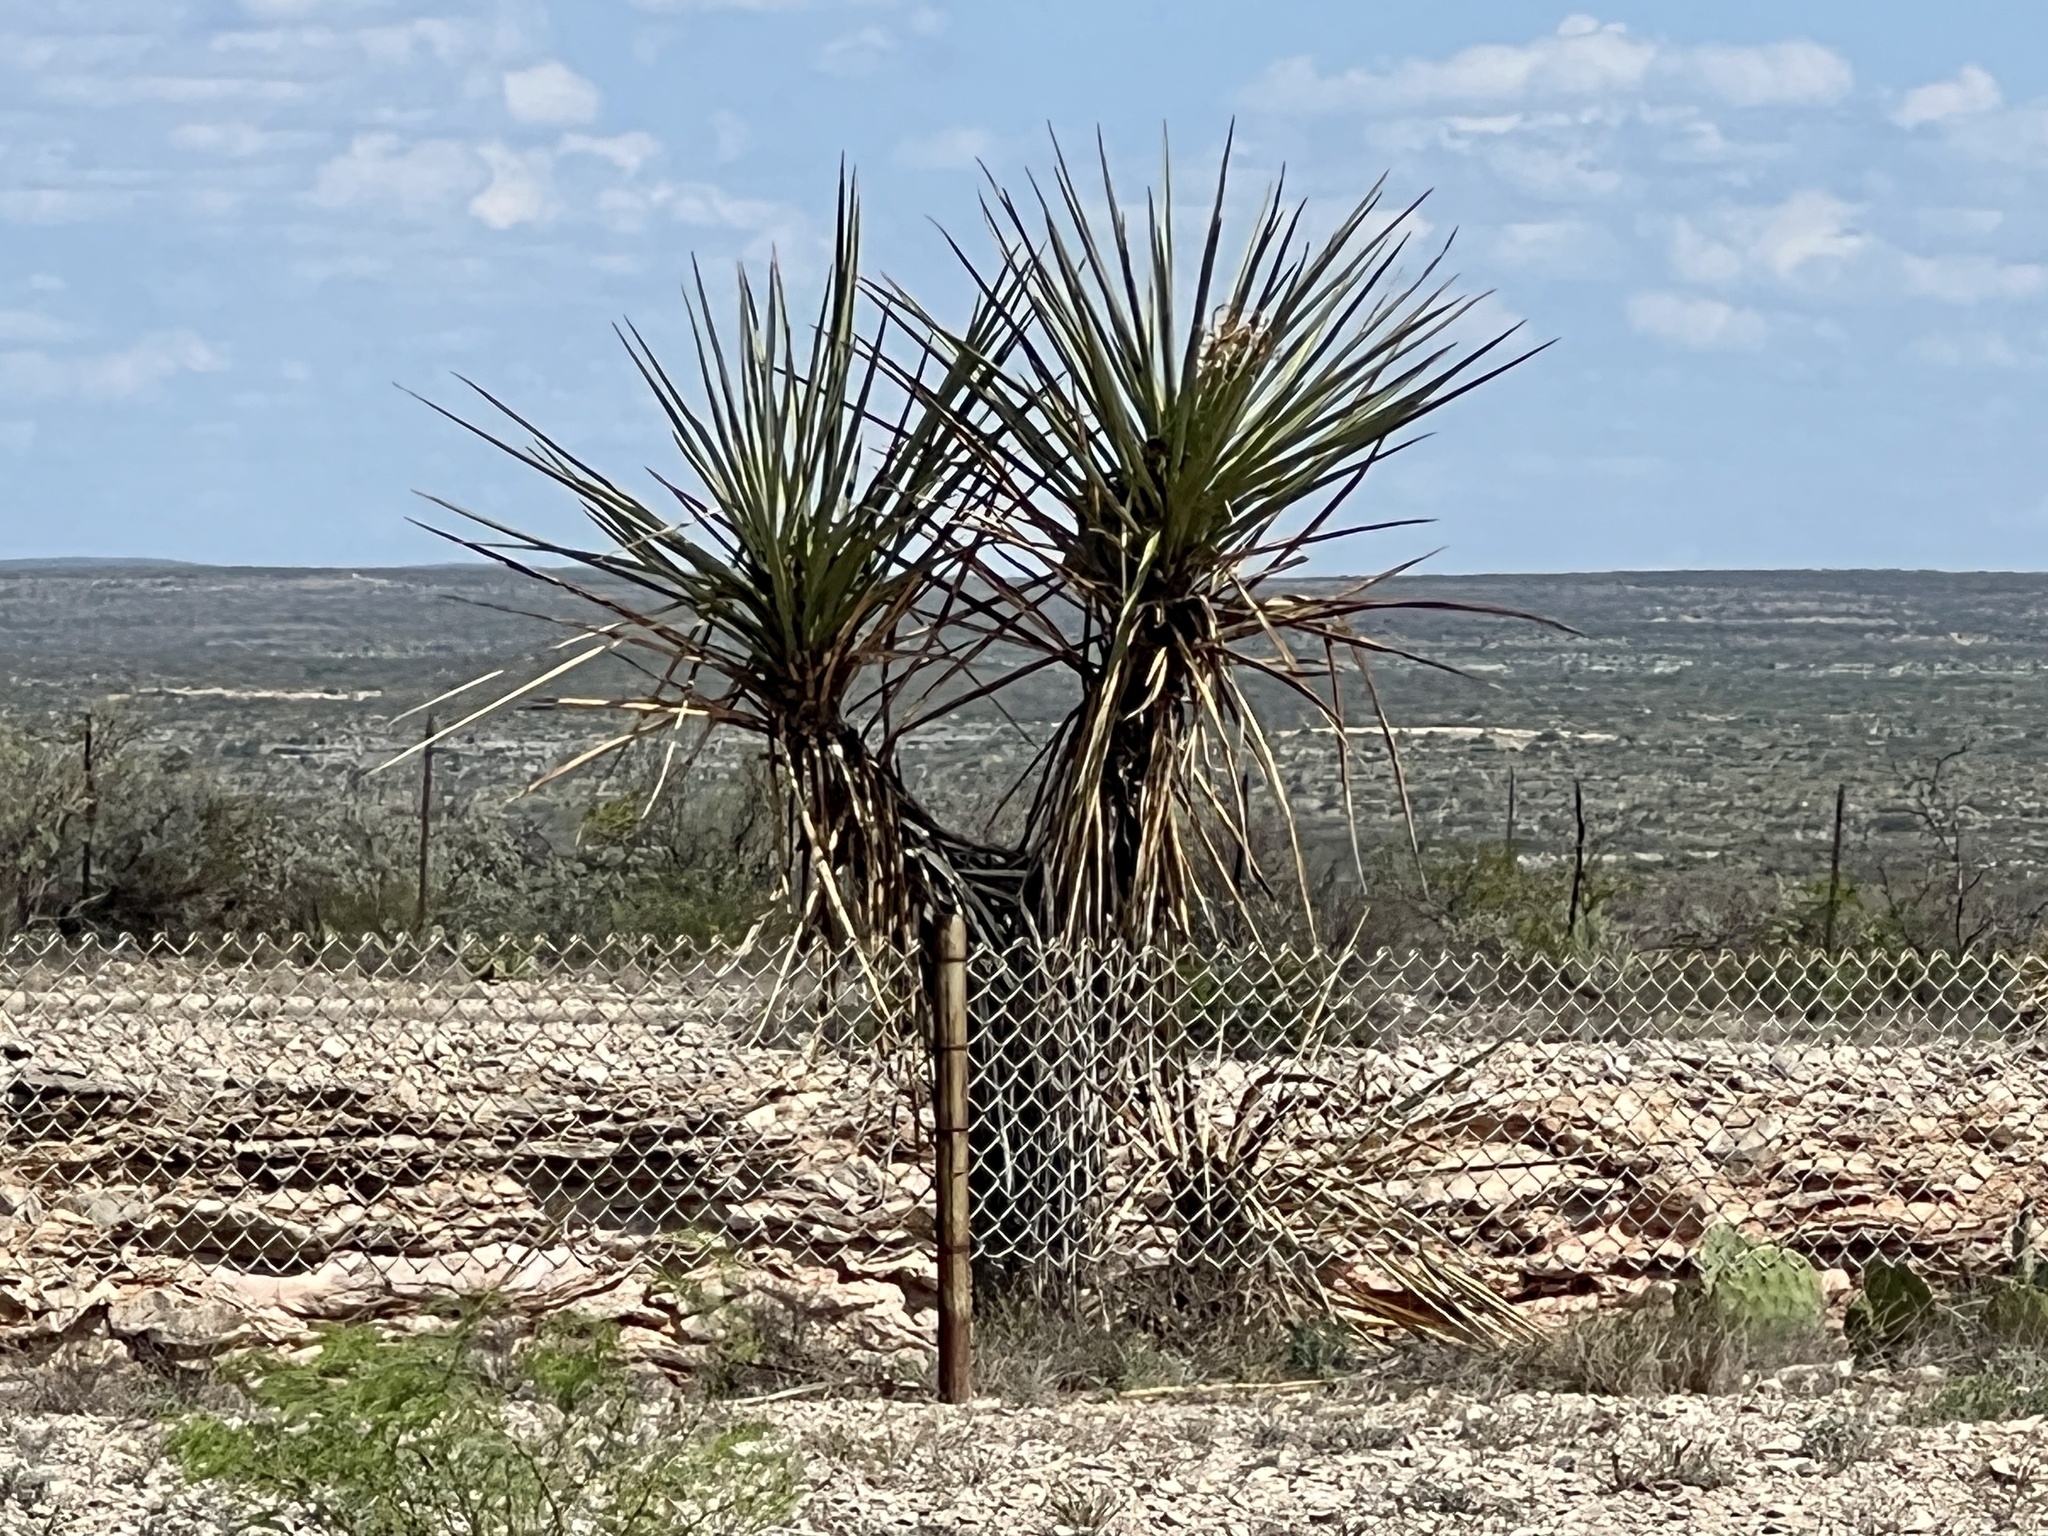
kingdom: Plantae
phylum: Tracheophyta
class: Liliopsida
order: Asparagales
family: Asparagaceae
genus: Yucca
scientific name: Yucca treculiana
